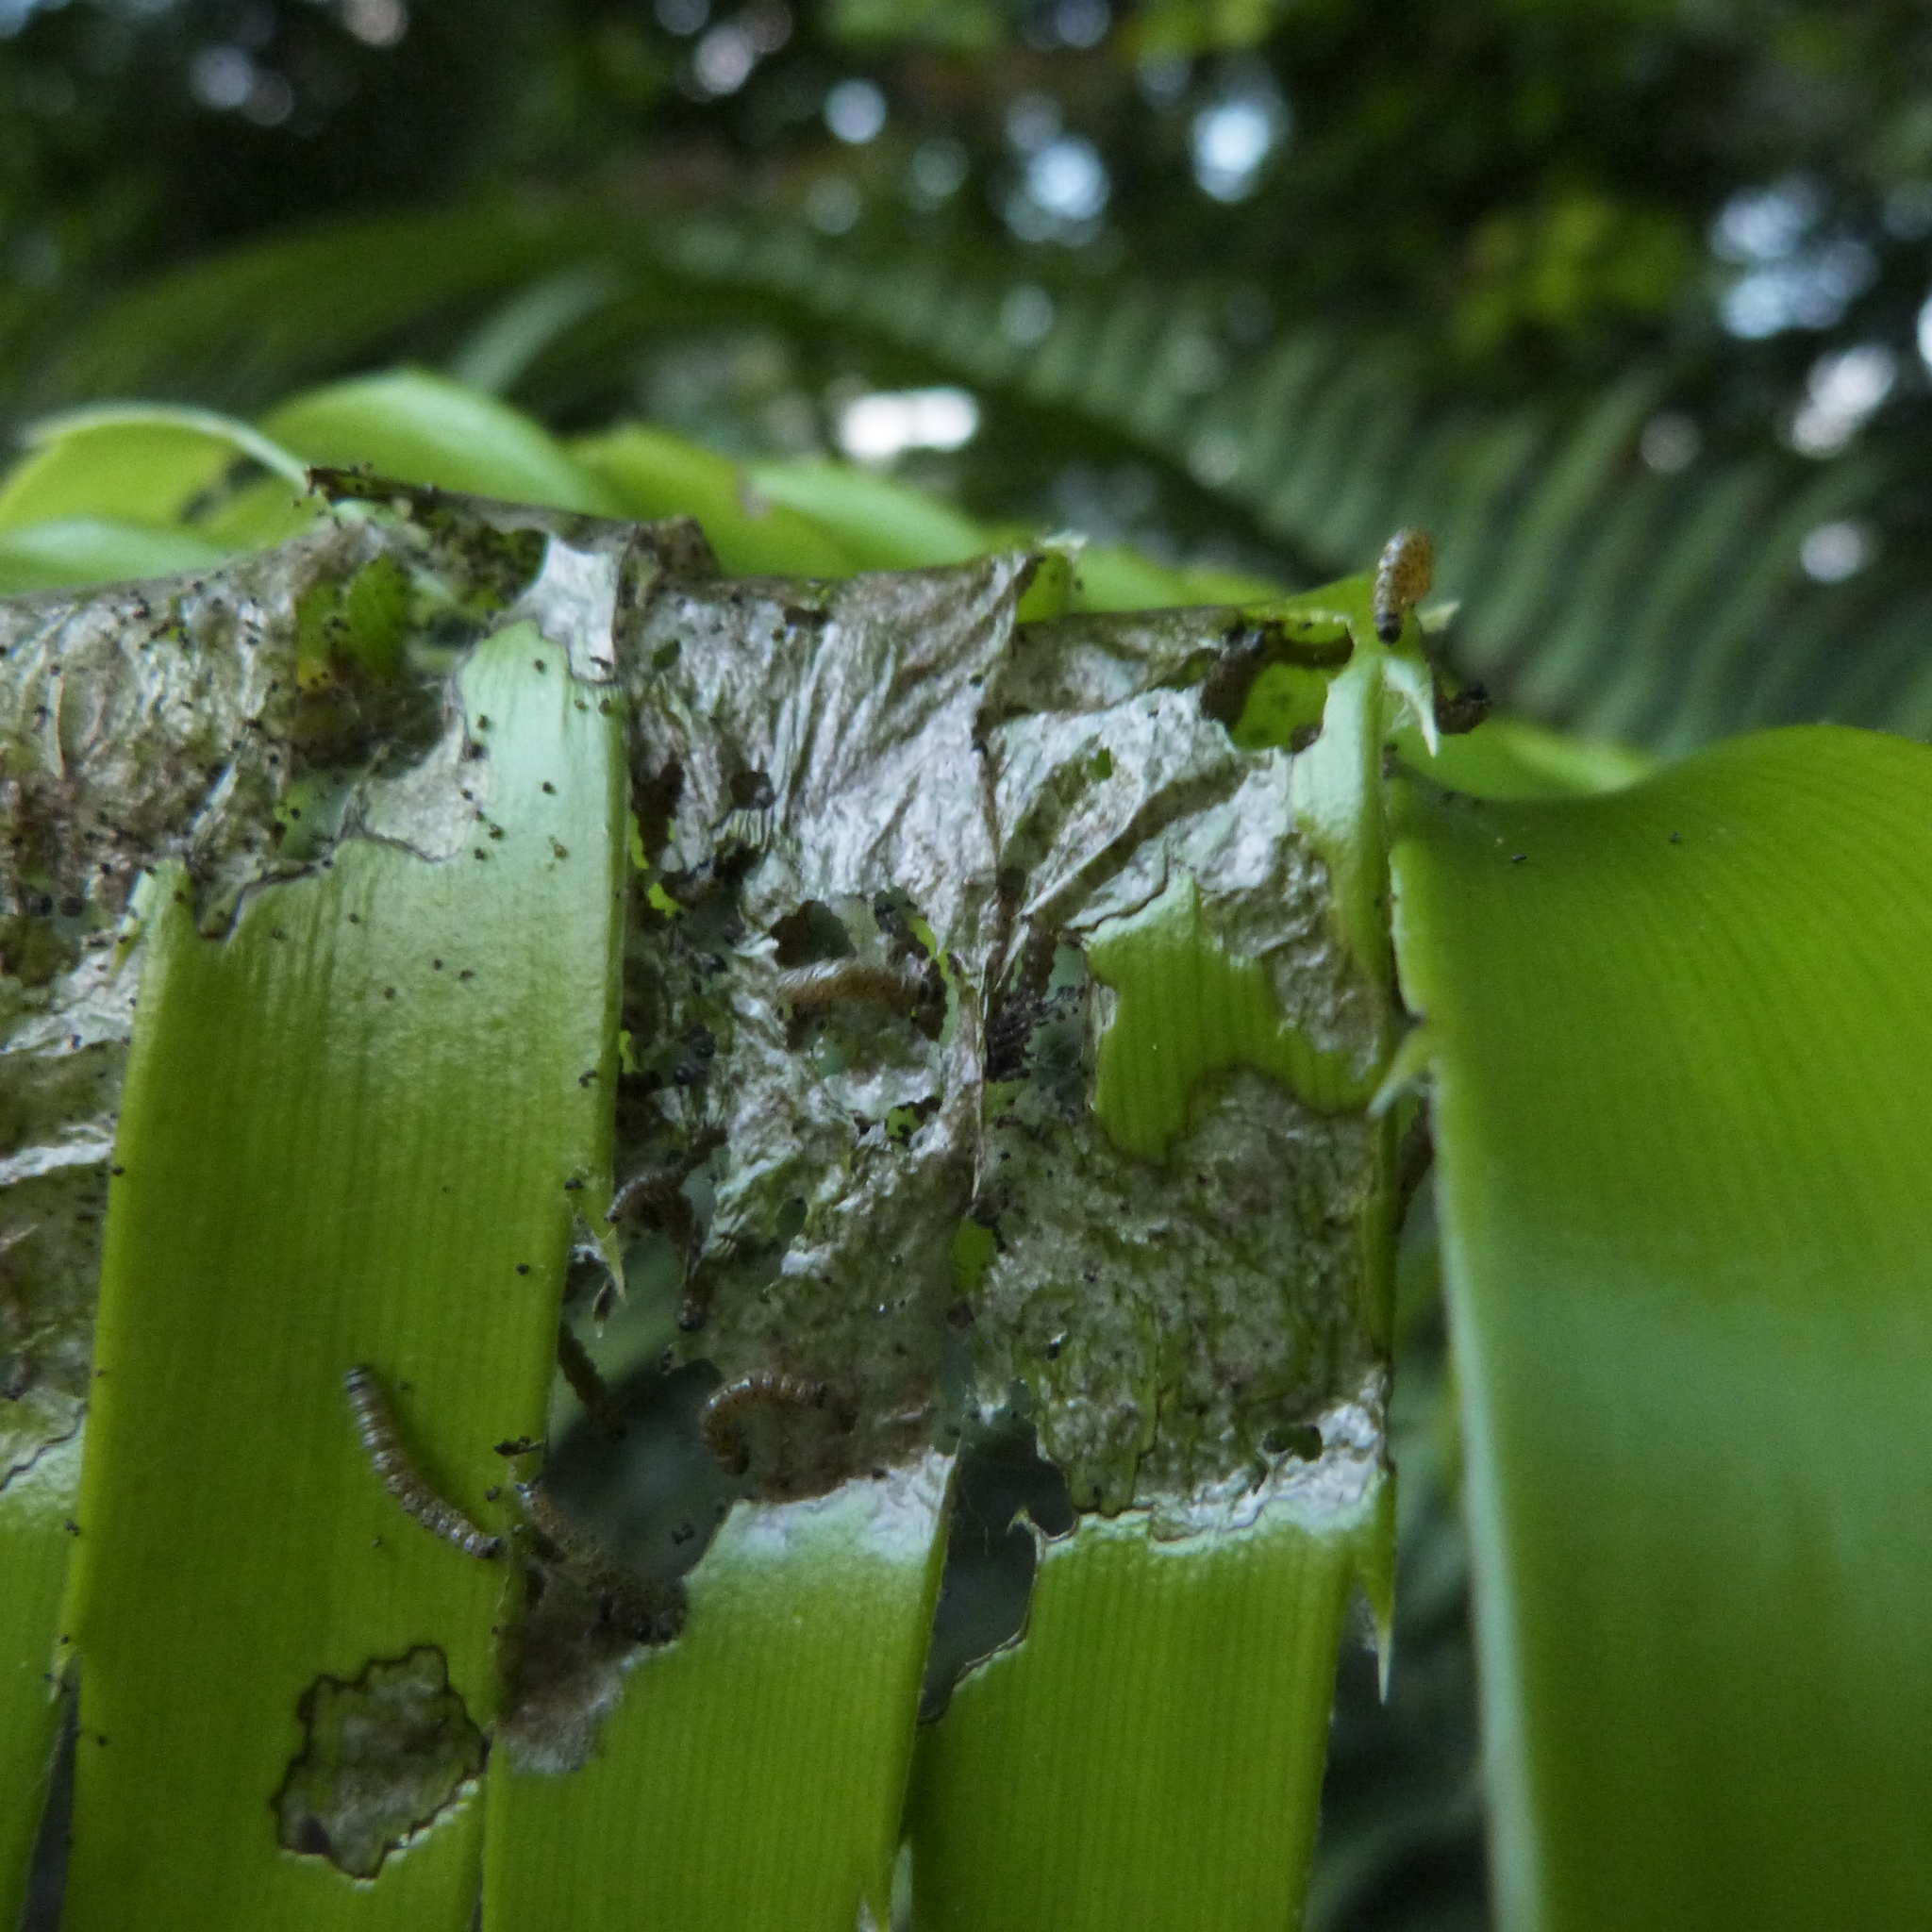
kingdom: Animalia
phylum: Arthropoda
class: Insecta
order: Lepidoptera
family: Geometridae
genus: Zerenopsis
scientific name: Zerenopsis lepida
